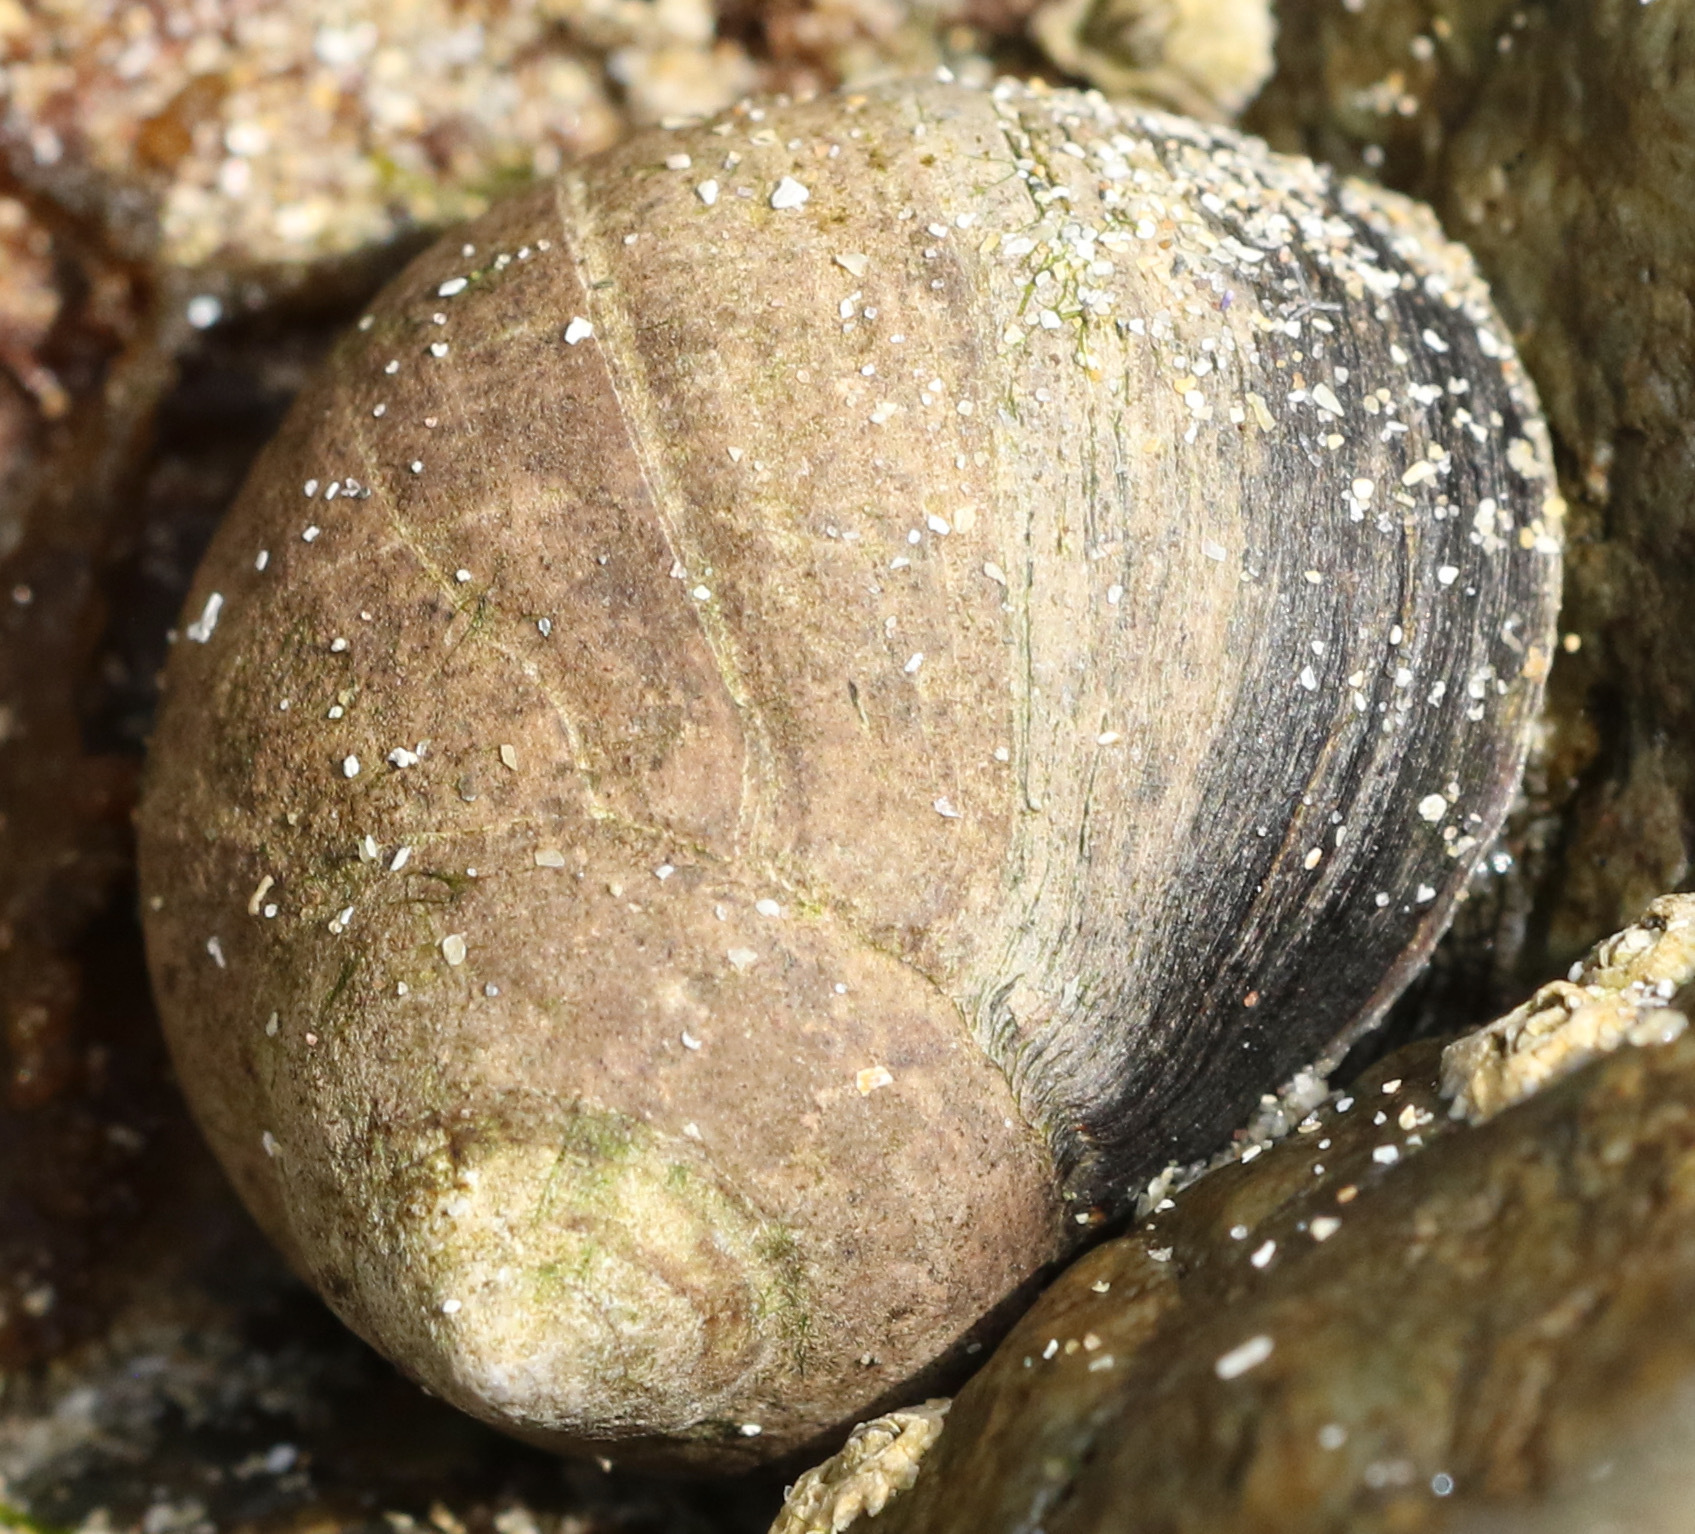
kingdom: Animalia
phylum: Mollusca
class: Gastropoda
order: Littorinimorpha
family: Littorinidae
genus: Littorina
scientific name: Littorina littorea
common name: Common periwinkle
